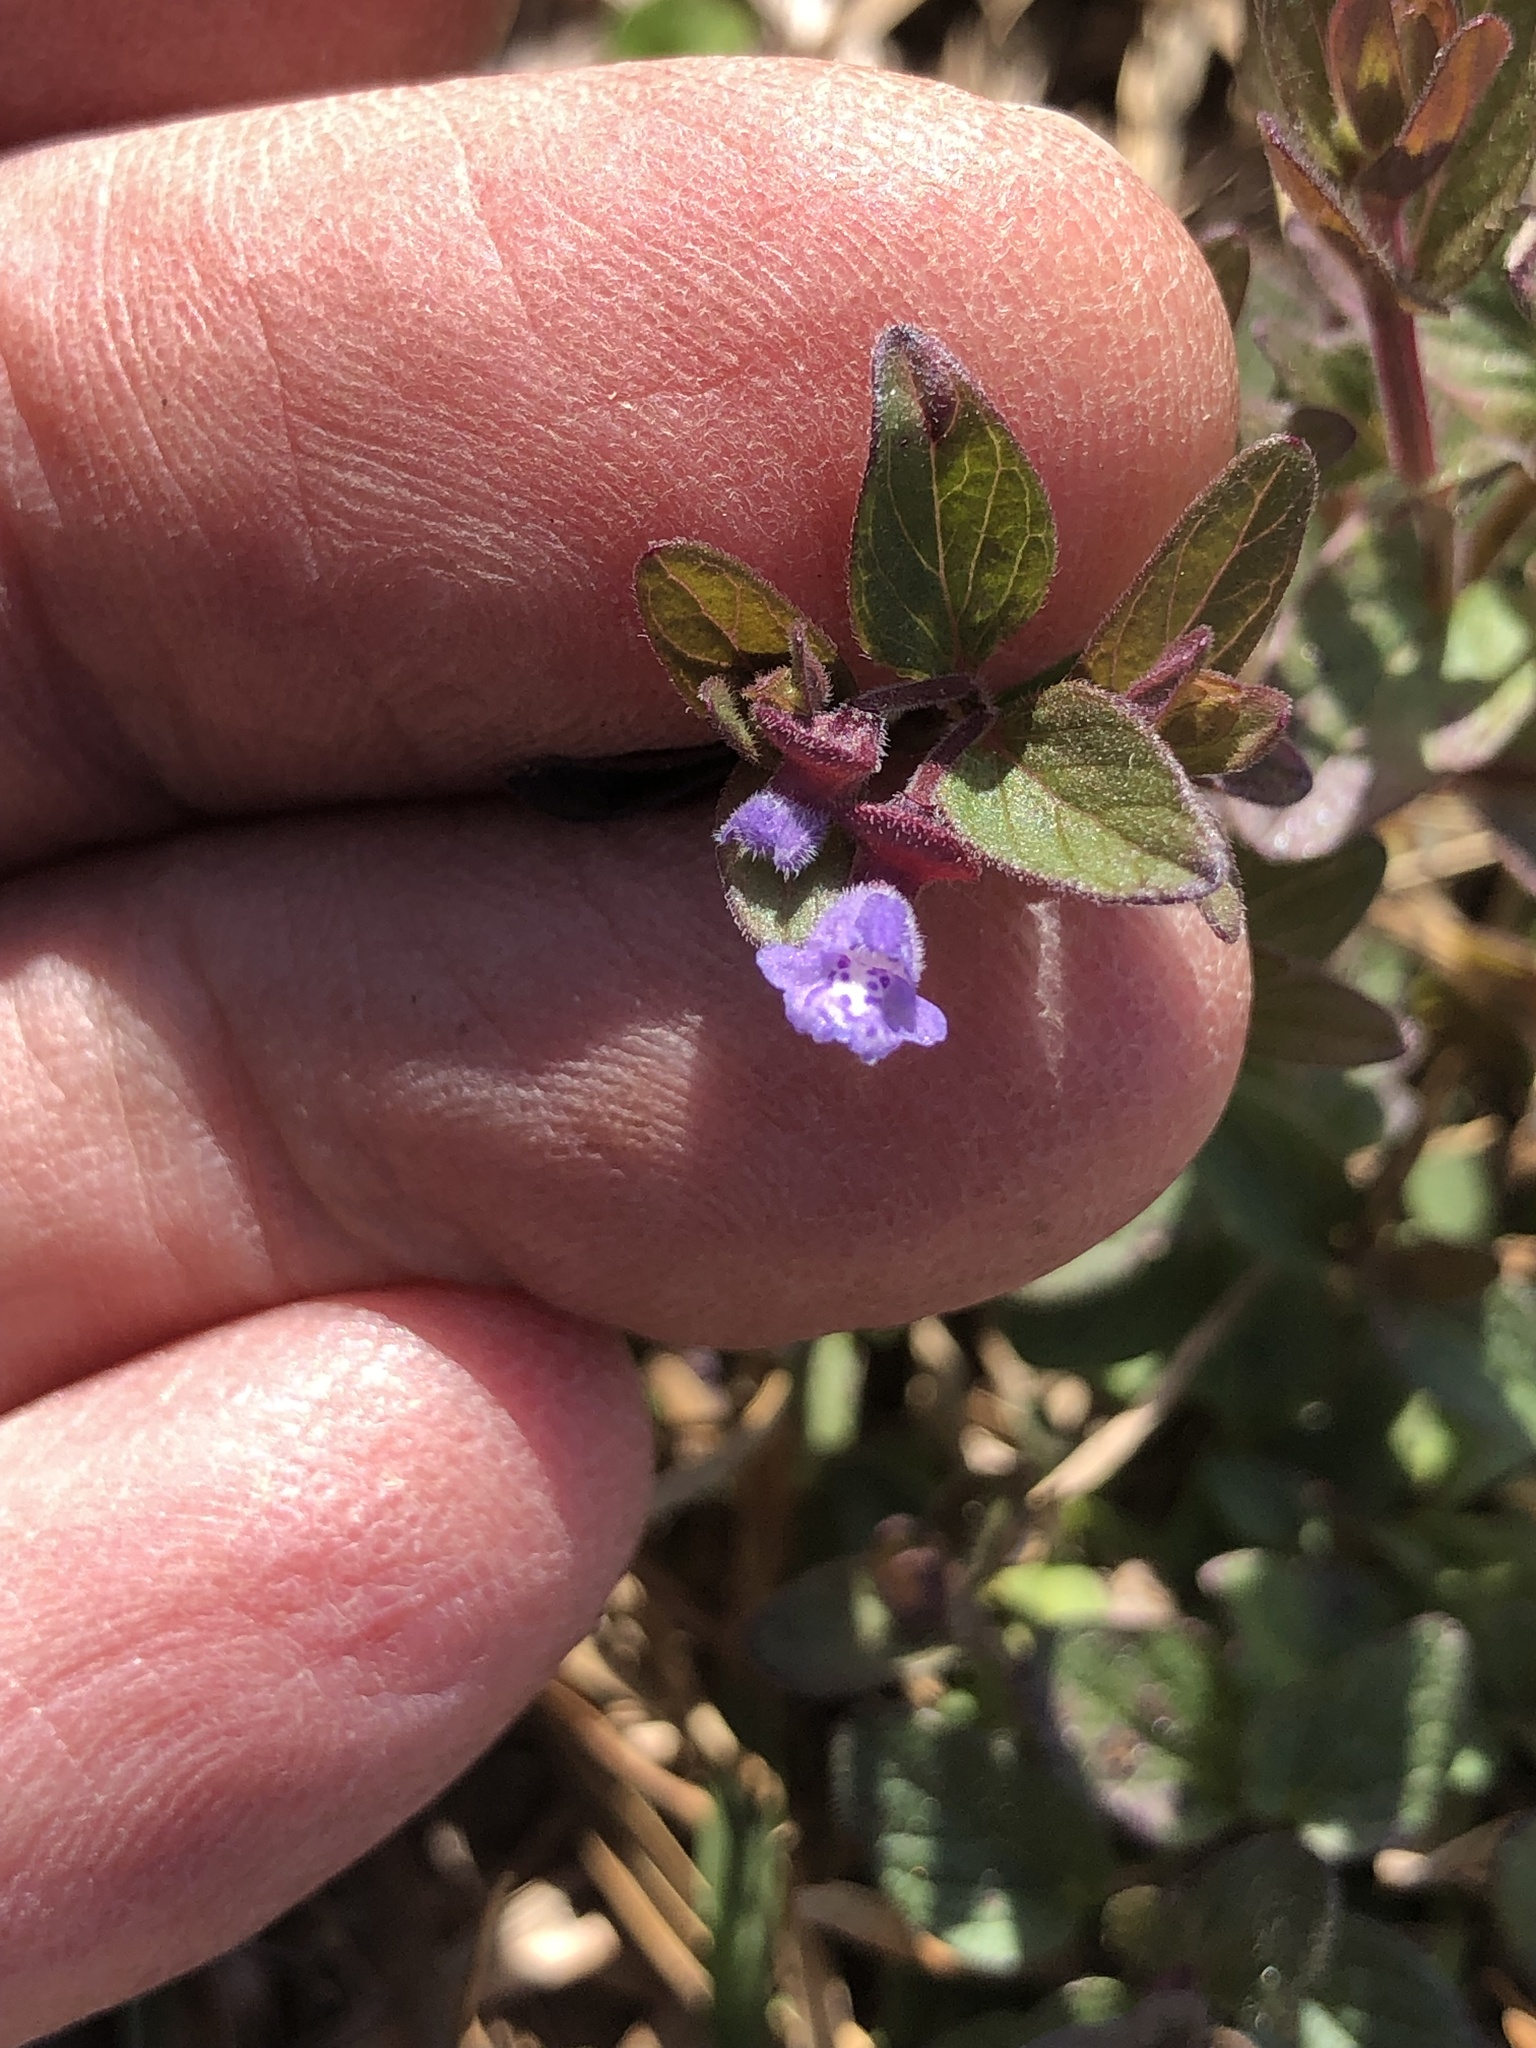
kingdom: Plantae
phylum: Tracheophyta
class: Magnoliopsida
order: Lamiales
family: Lamiaceae
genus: Scutellaria
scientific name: Scutellaria parvula
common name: Little scullcap
